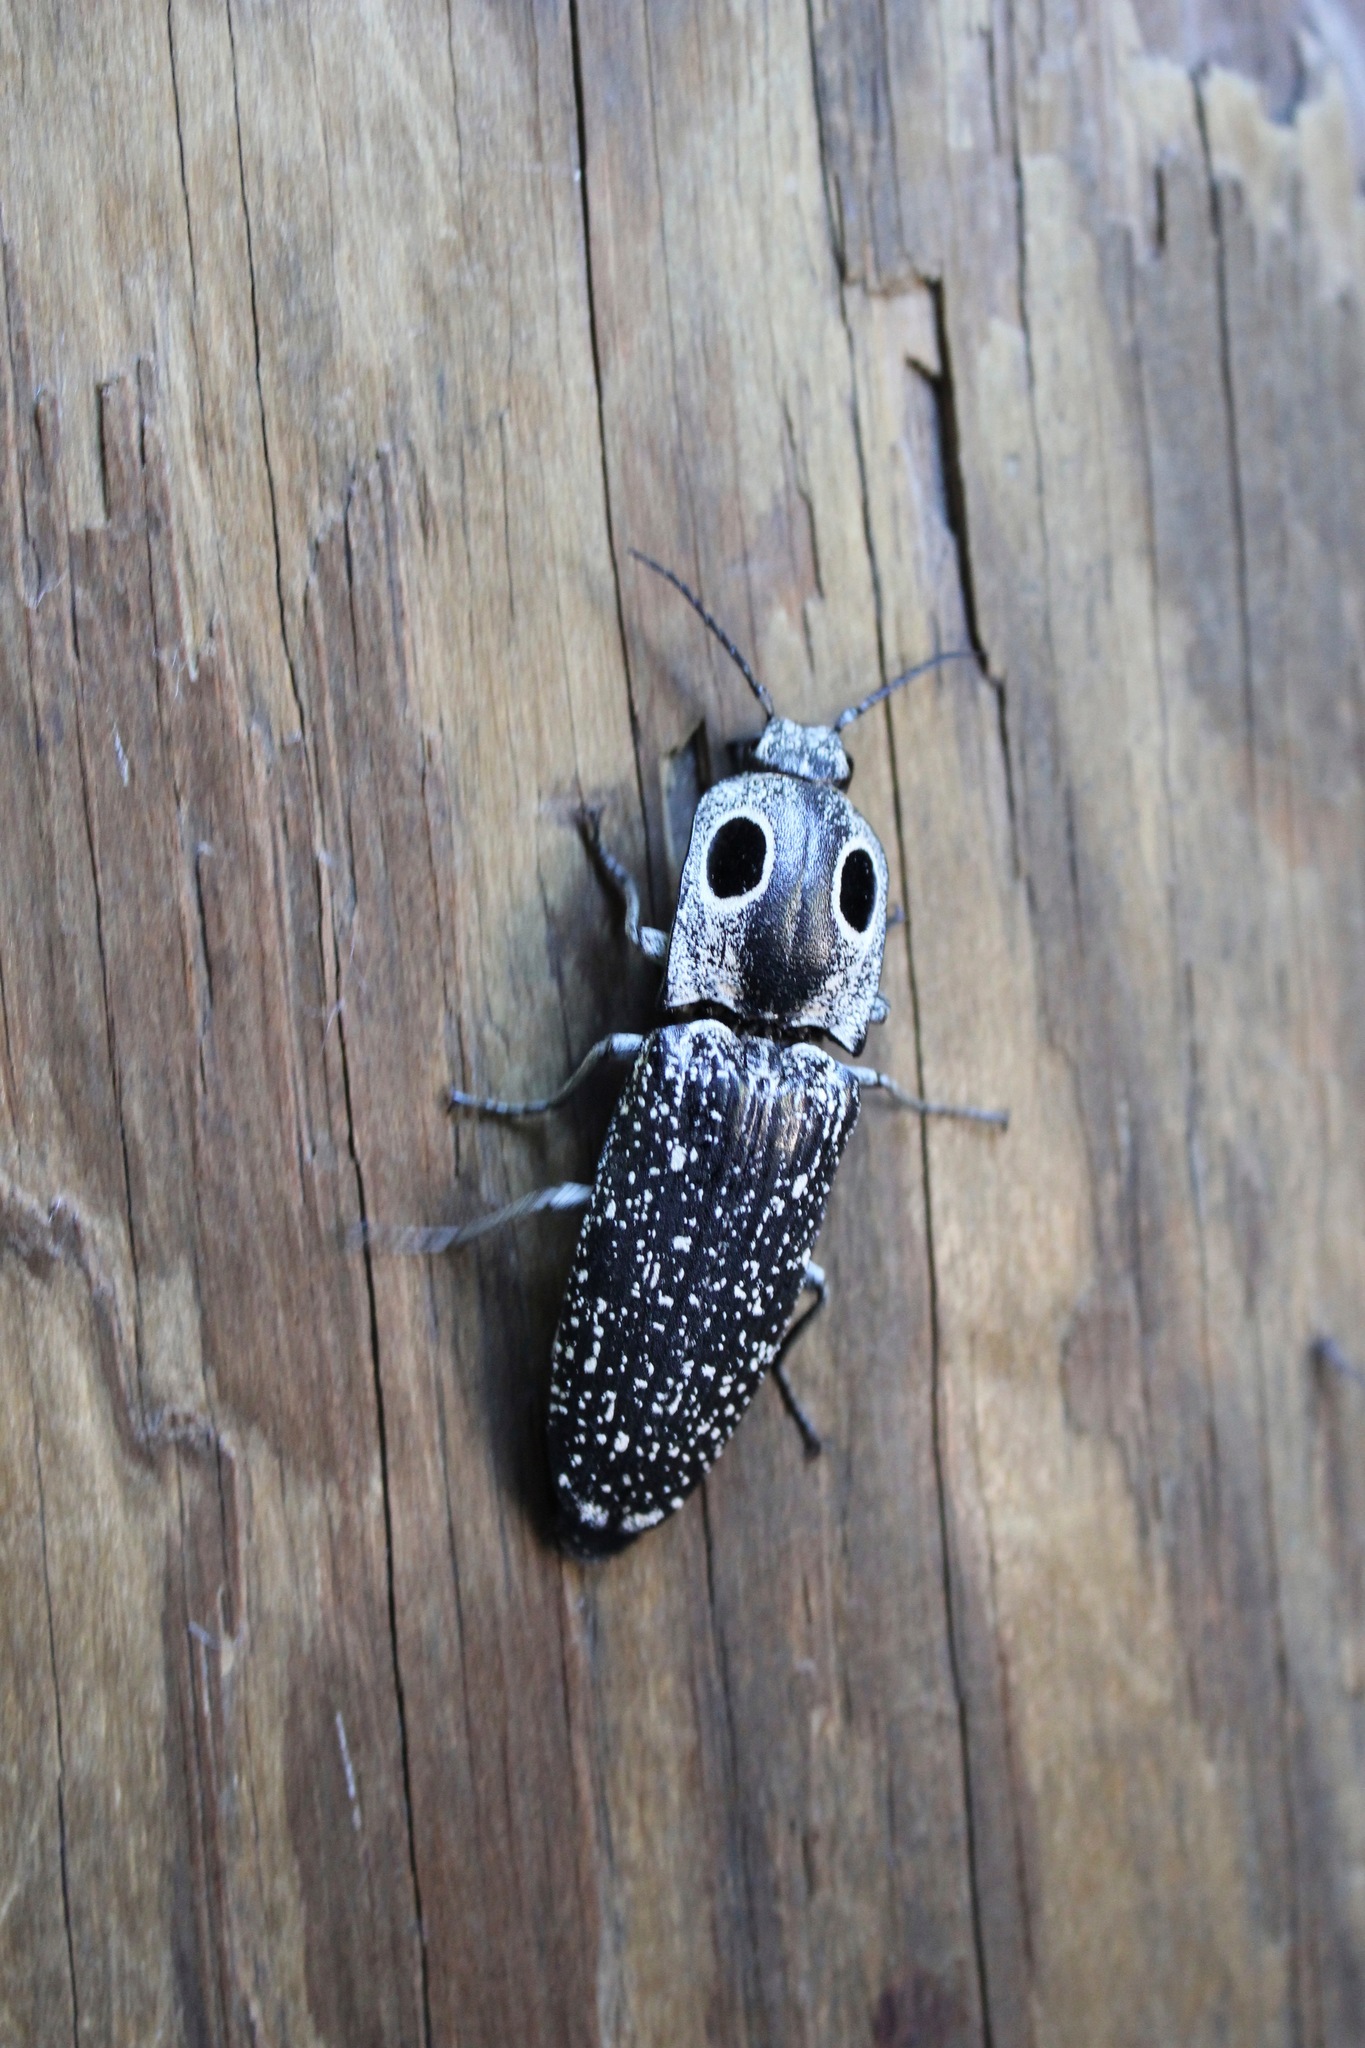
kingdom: Animalia
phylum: Arthropoda
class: Insecta
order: Coleoptera
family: Elateridae
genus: Alaus
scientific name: Alaus oculatus
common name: Eastern eyed click beetle
